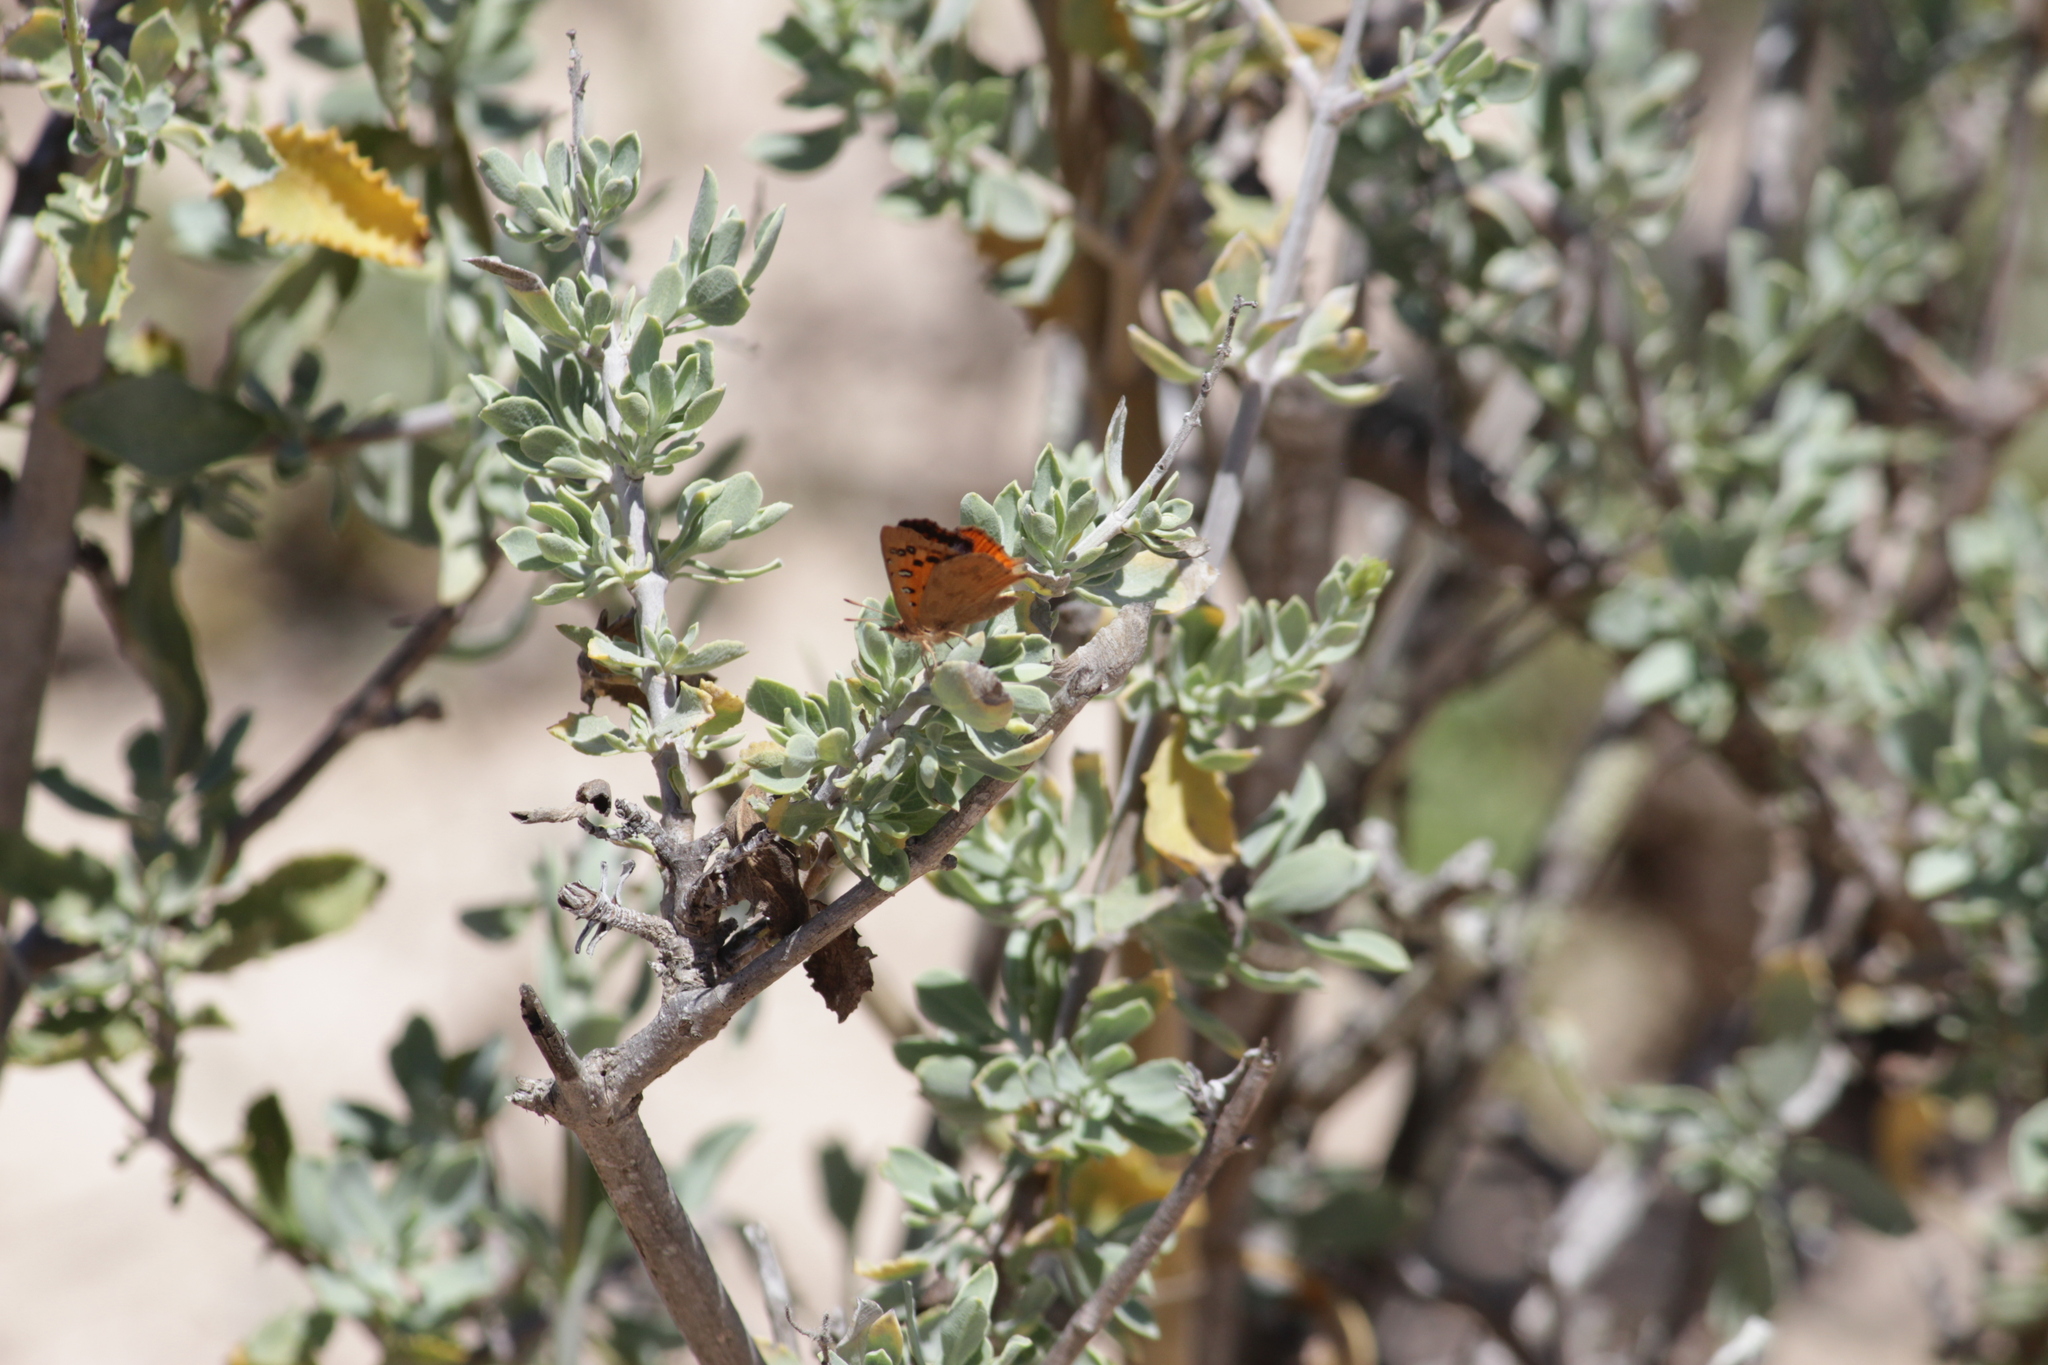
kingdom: Animalia
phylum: Arthropoda
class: Insecta
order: Lepidoptera
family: Lycaenidae
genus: Chrysoritis
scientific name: Chrysoritis pan
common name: Pan opal
